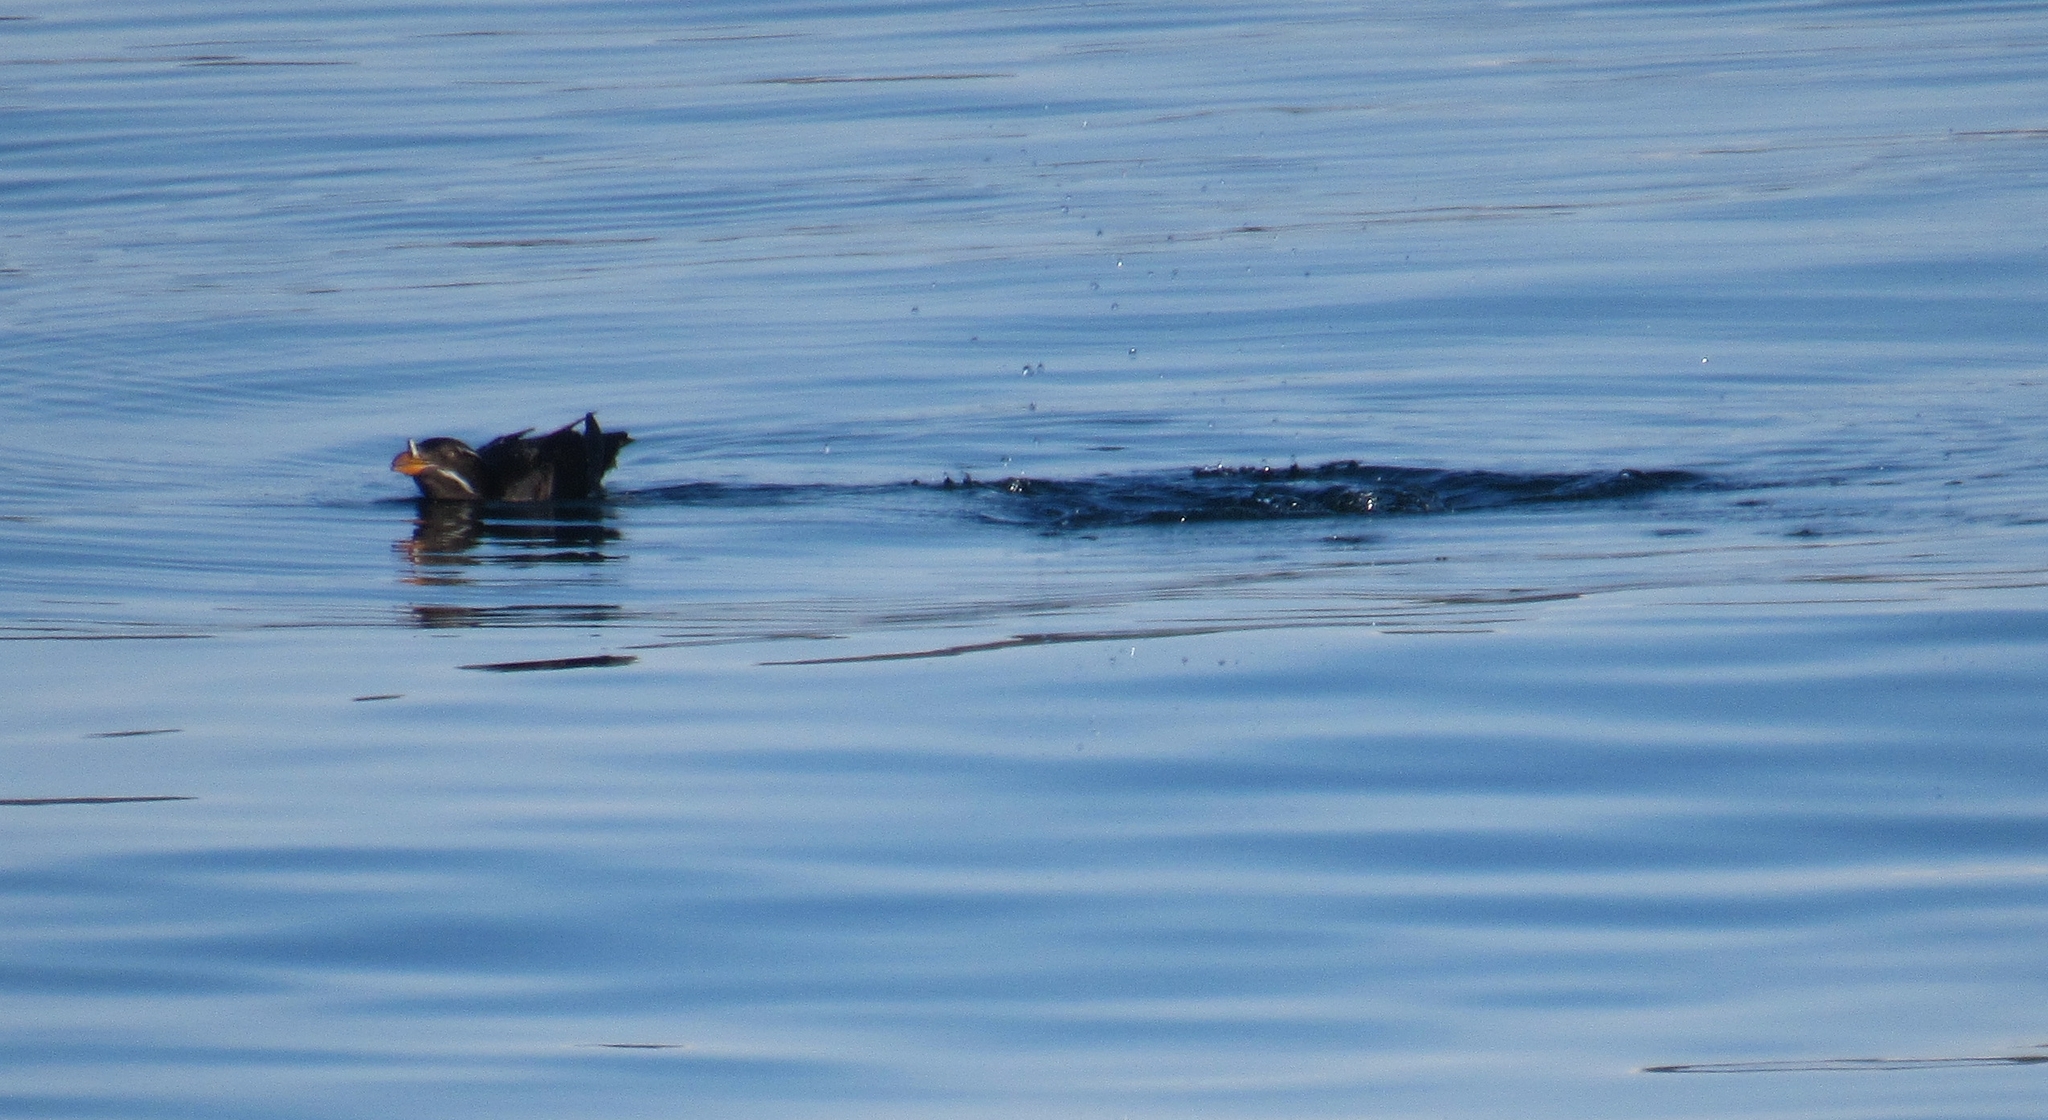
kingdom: Animalia
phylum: Chordata
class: Aves
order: Charadriiformes
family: Alcidae
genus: Cerorhinca
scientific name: Cerorhinca monocerata
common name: Rhinoceros auklet
